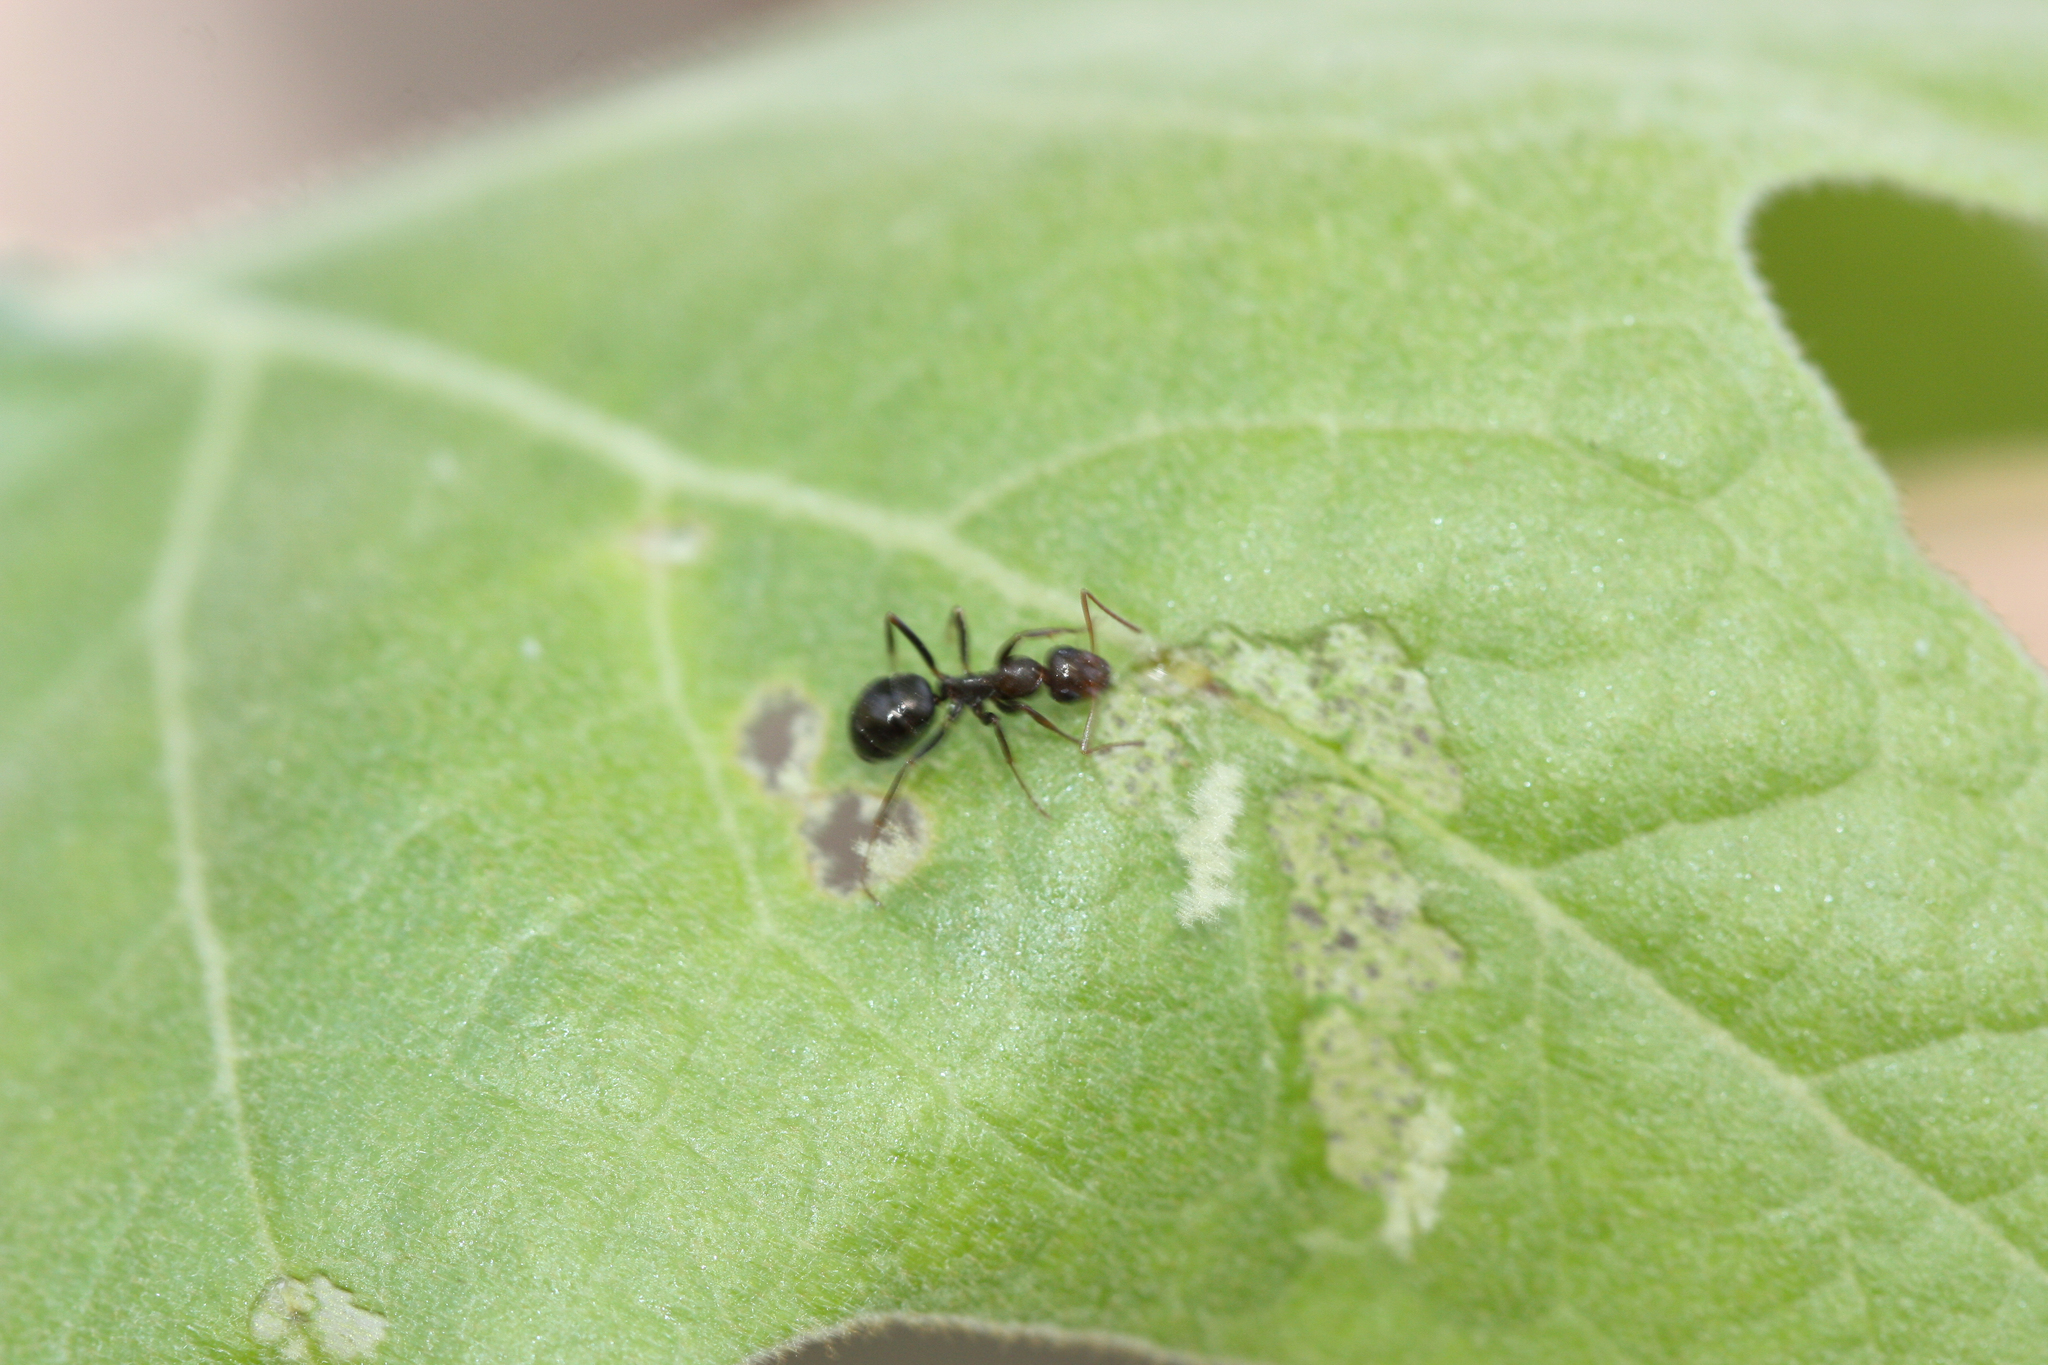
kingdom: Animalia
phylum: Arthropoda
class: Insecta
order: Hymenoptera
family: Formicidae
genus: Formica
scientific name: Formica gnava
